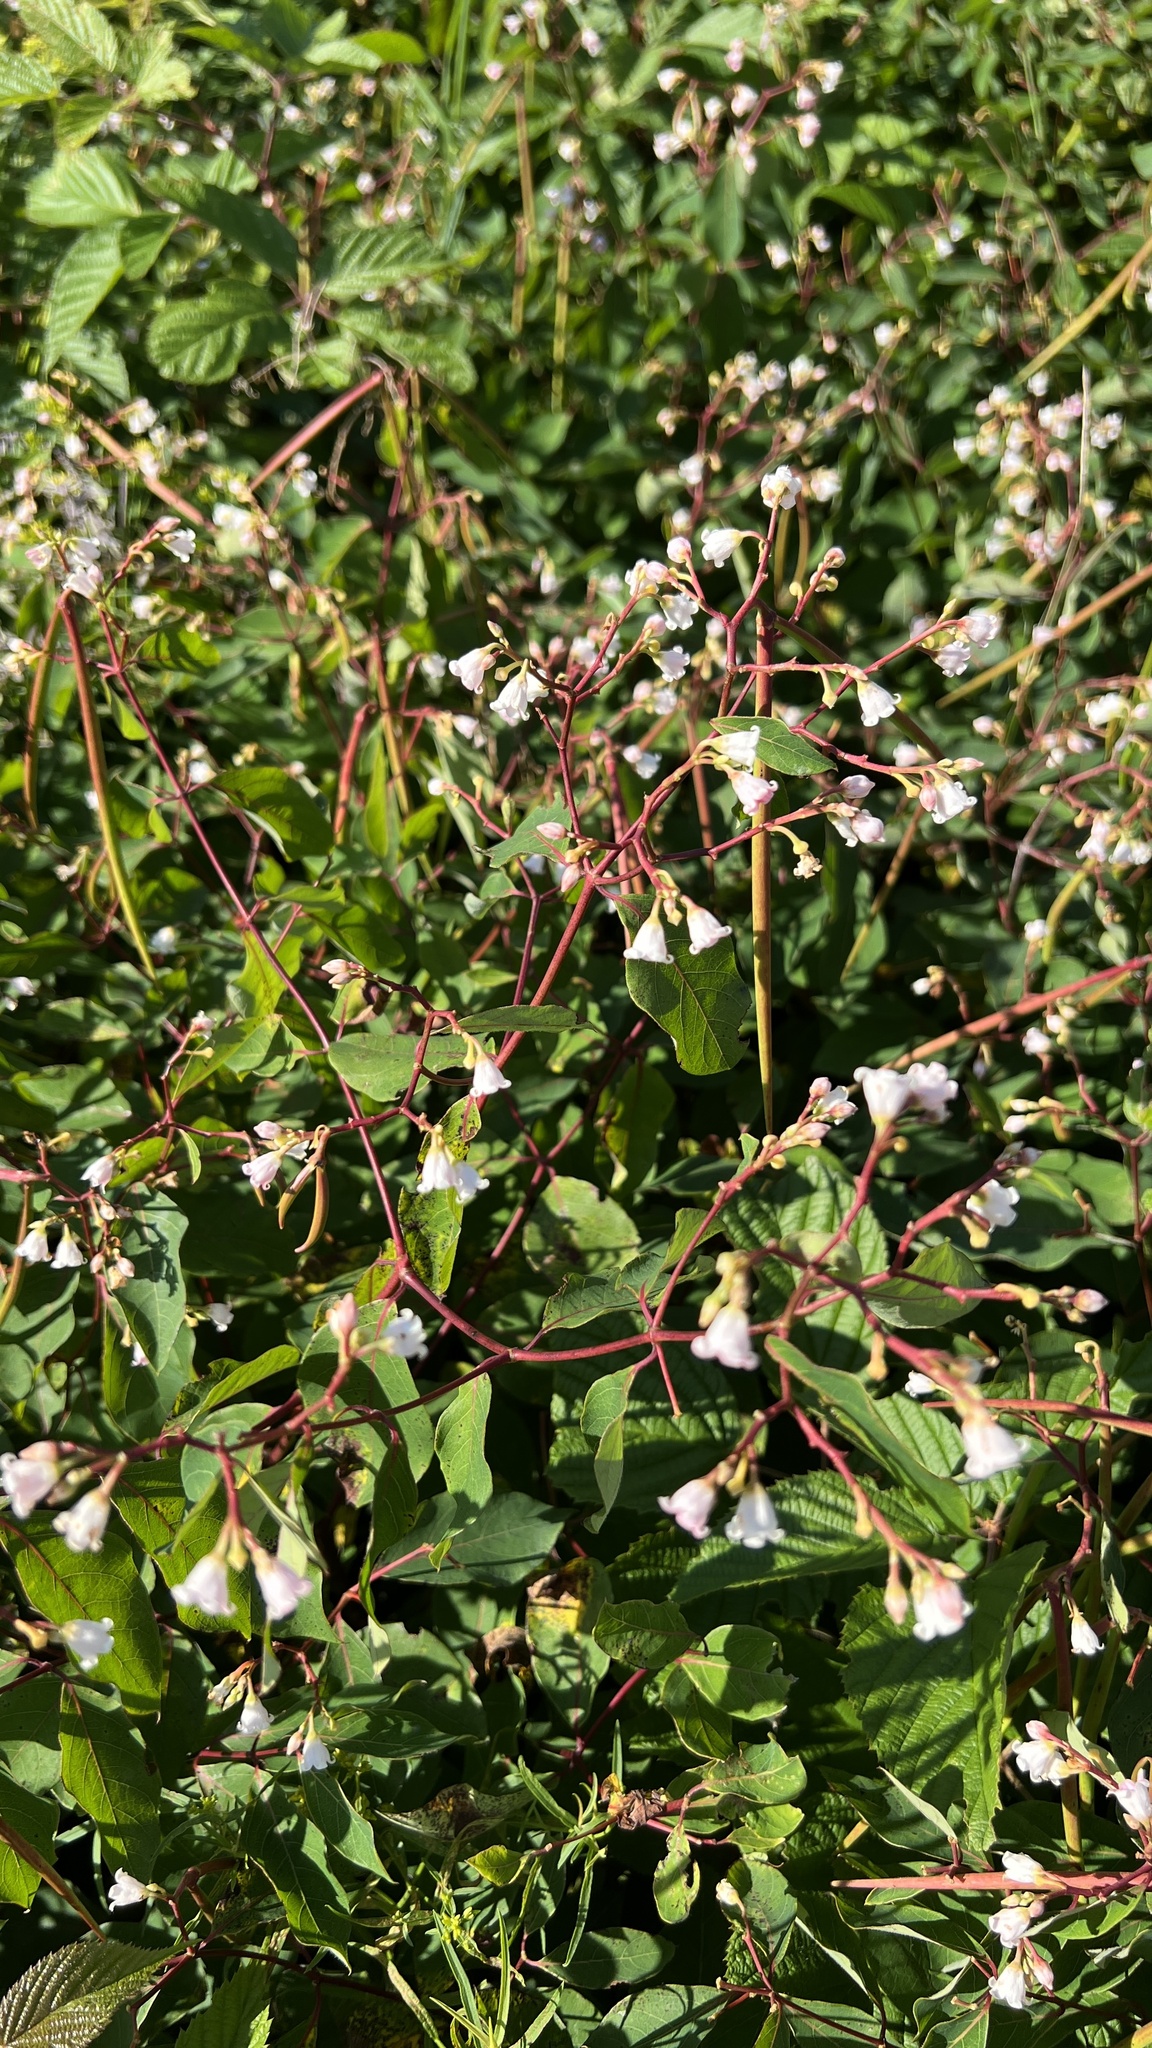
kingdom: Plantae
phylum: Tracheophyta
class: Magnoliopsida
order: Gentianales
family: Apocynaceae
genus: Apocynum
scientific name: Apocynum androsaemifolium
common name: Spreading dogbane
